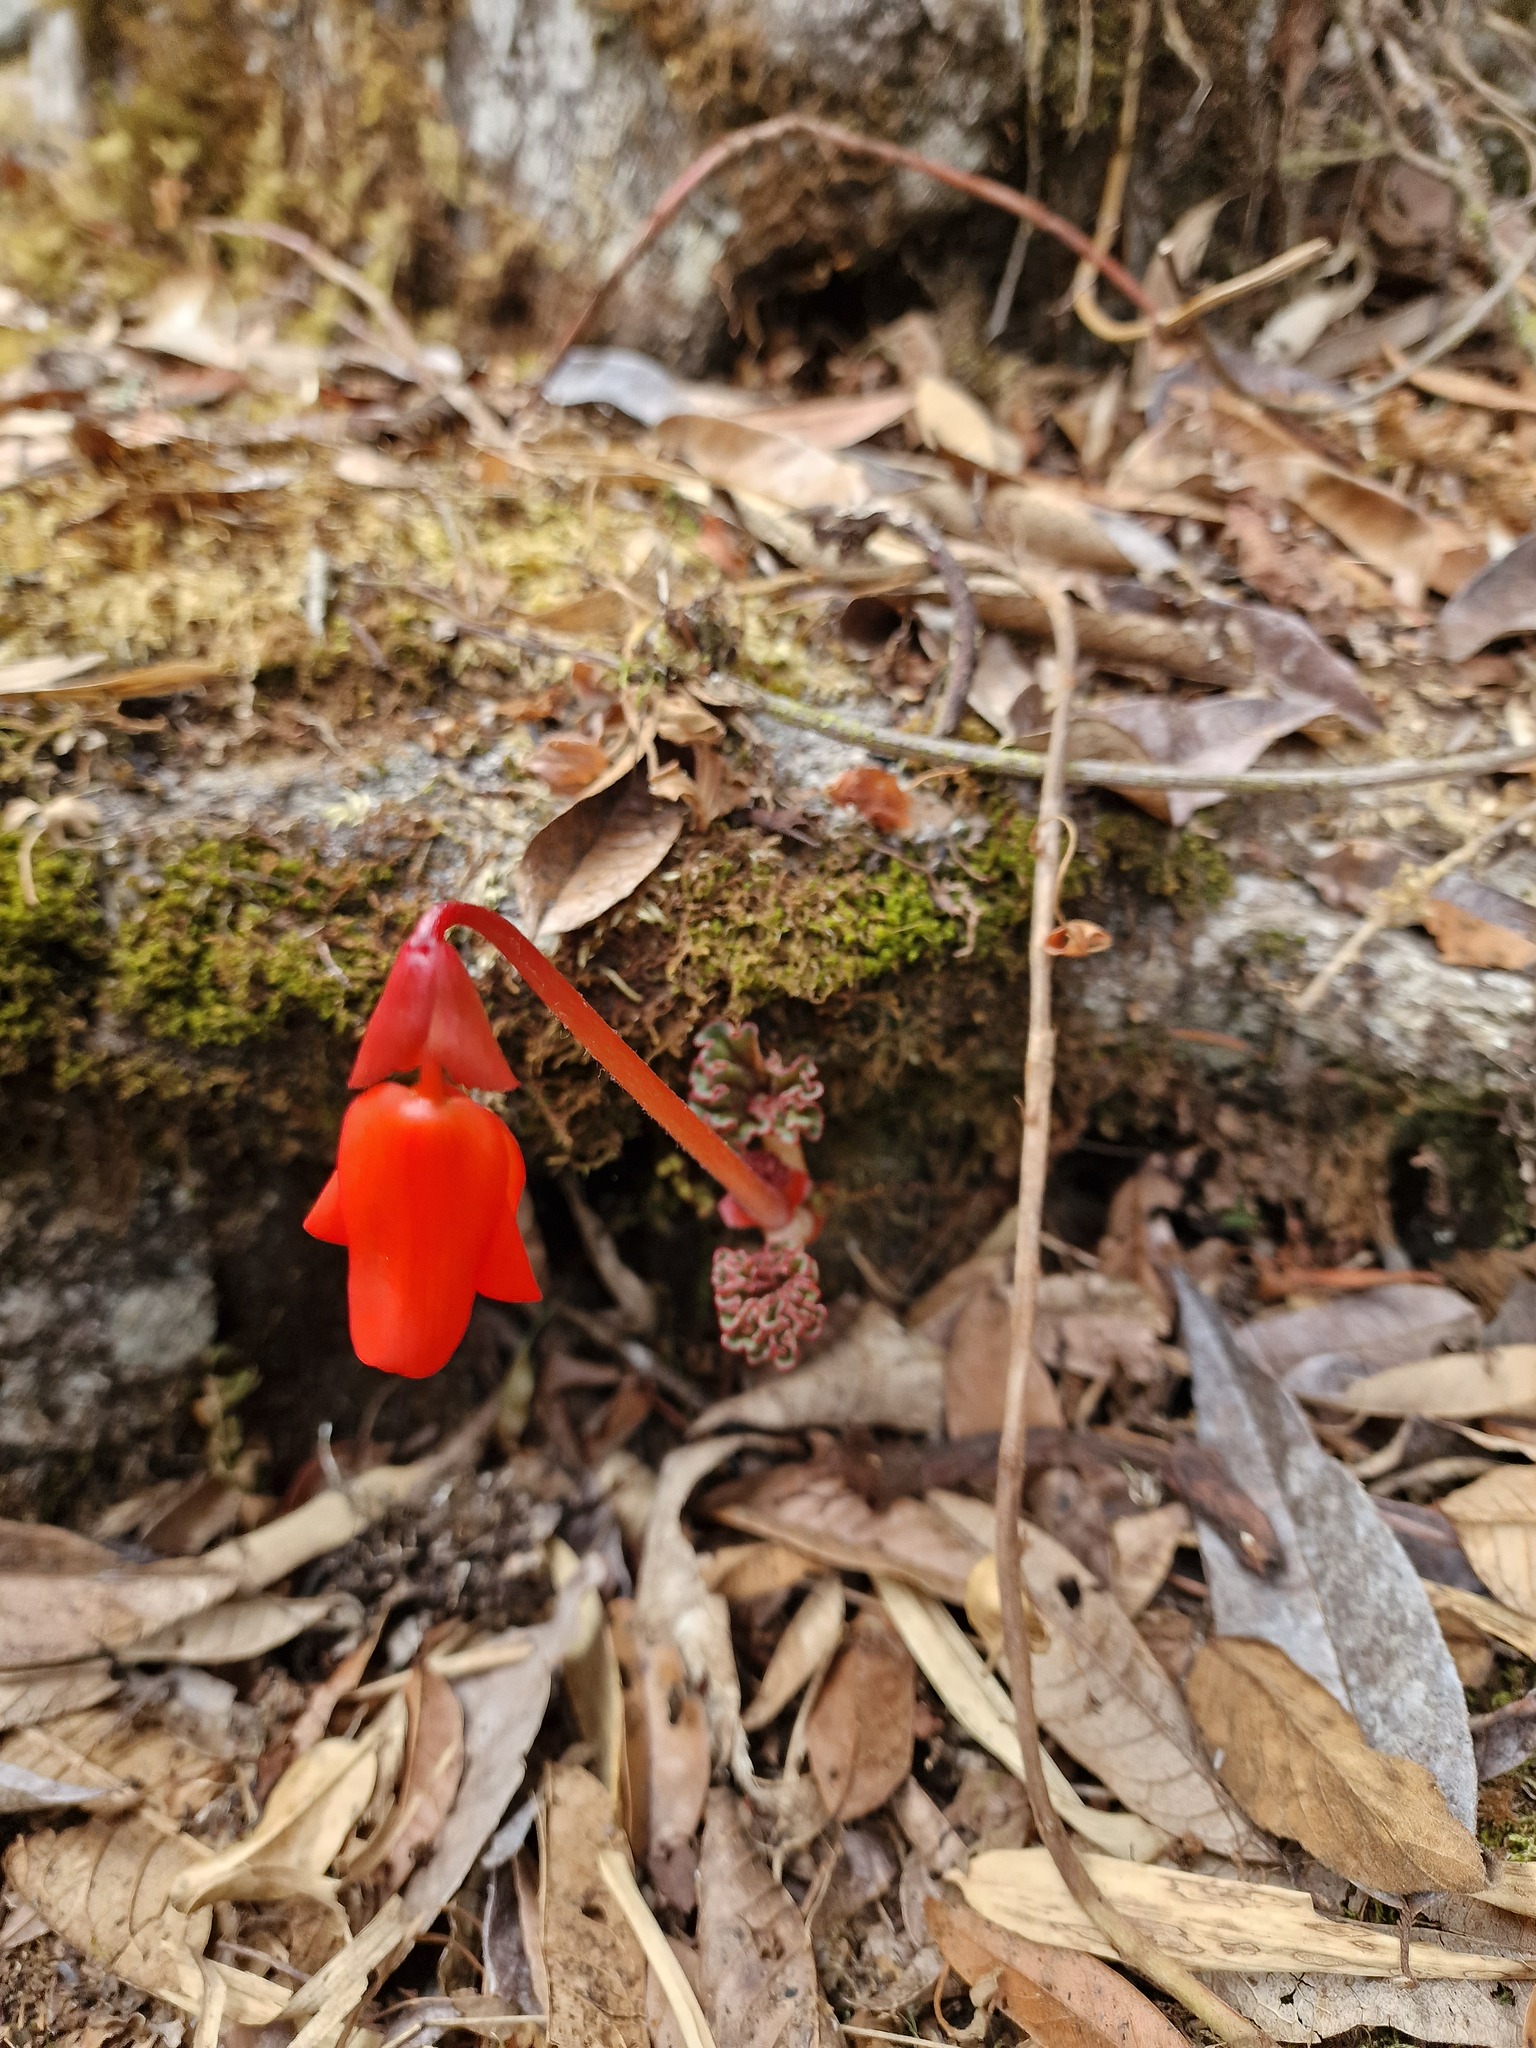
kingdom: Plantae
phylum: Tracheophyta
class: Magnoliopsida
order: Cucurbitales
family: Begoniaceae
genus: Begonia
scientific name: Begonia veitchii
